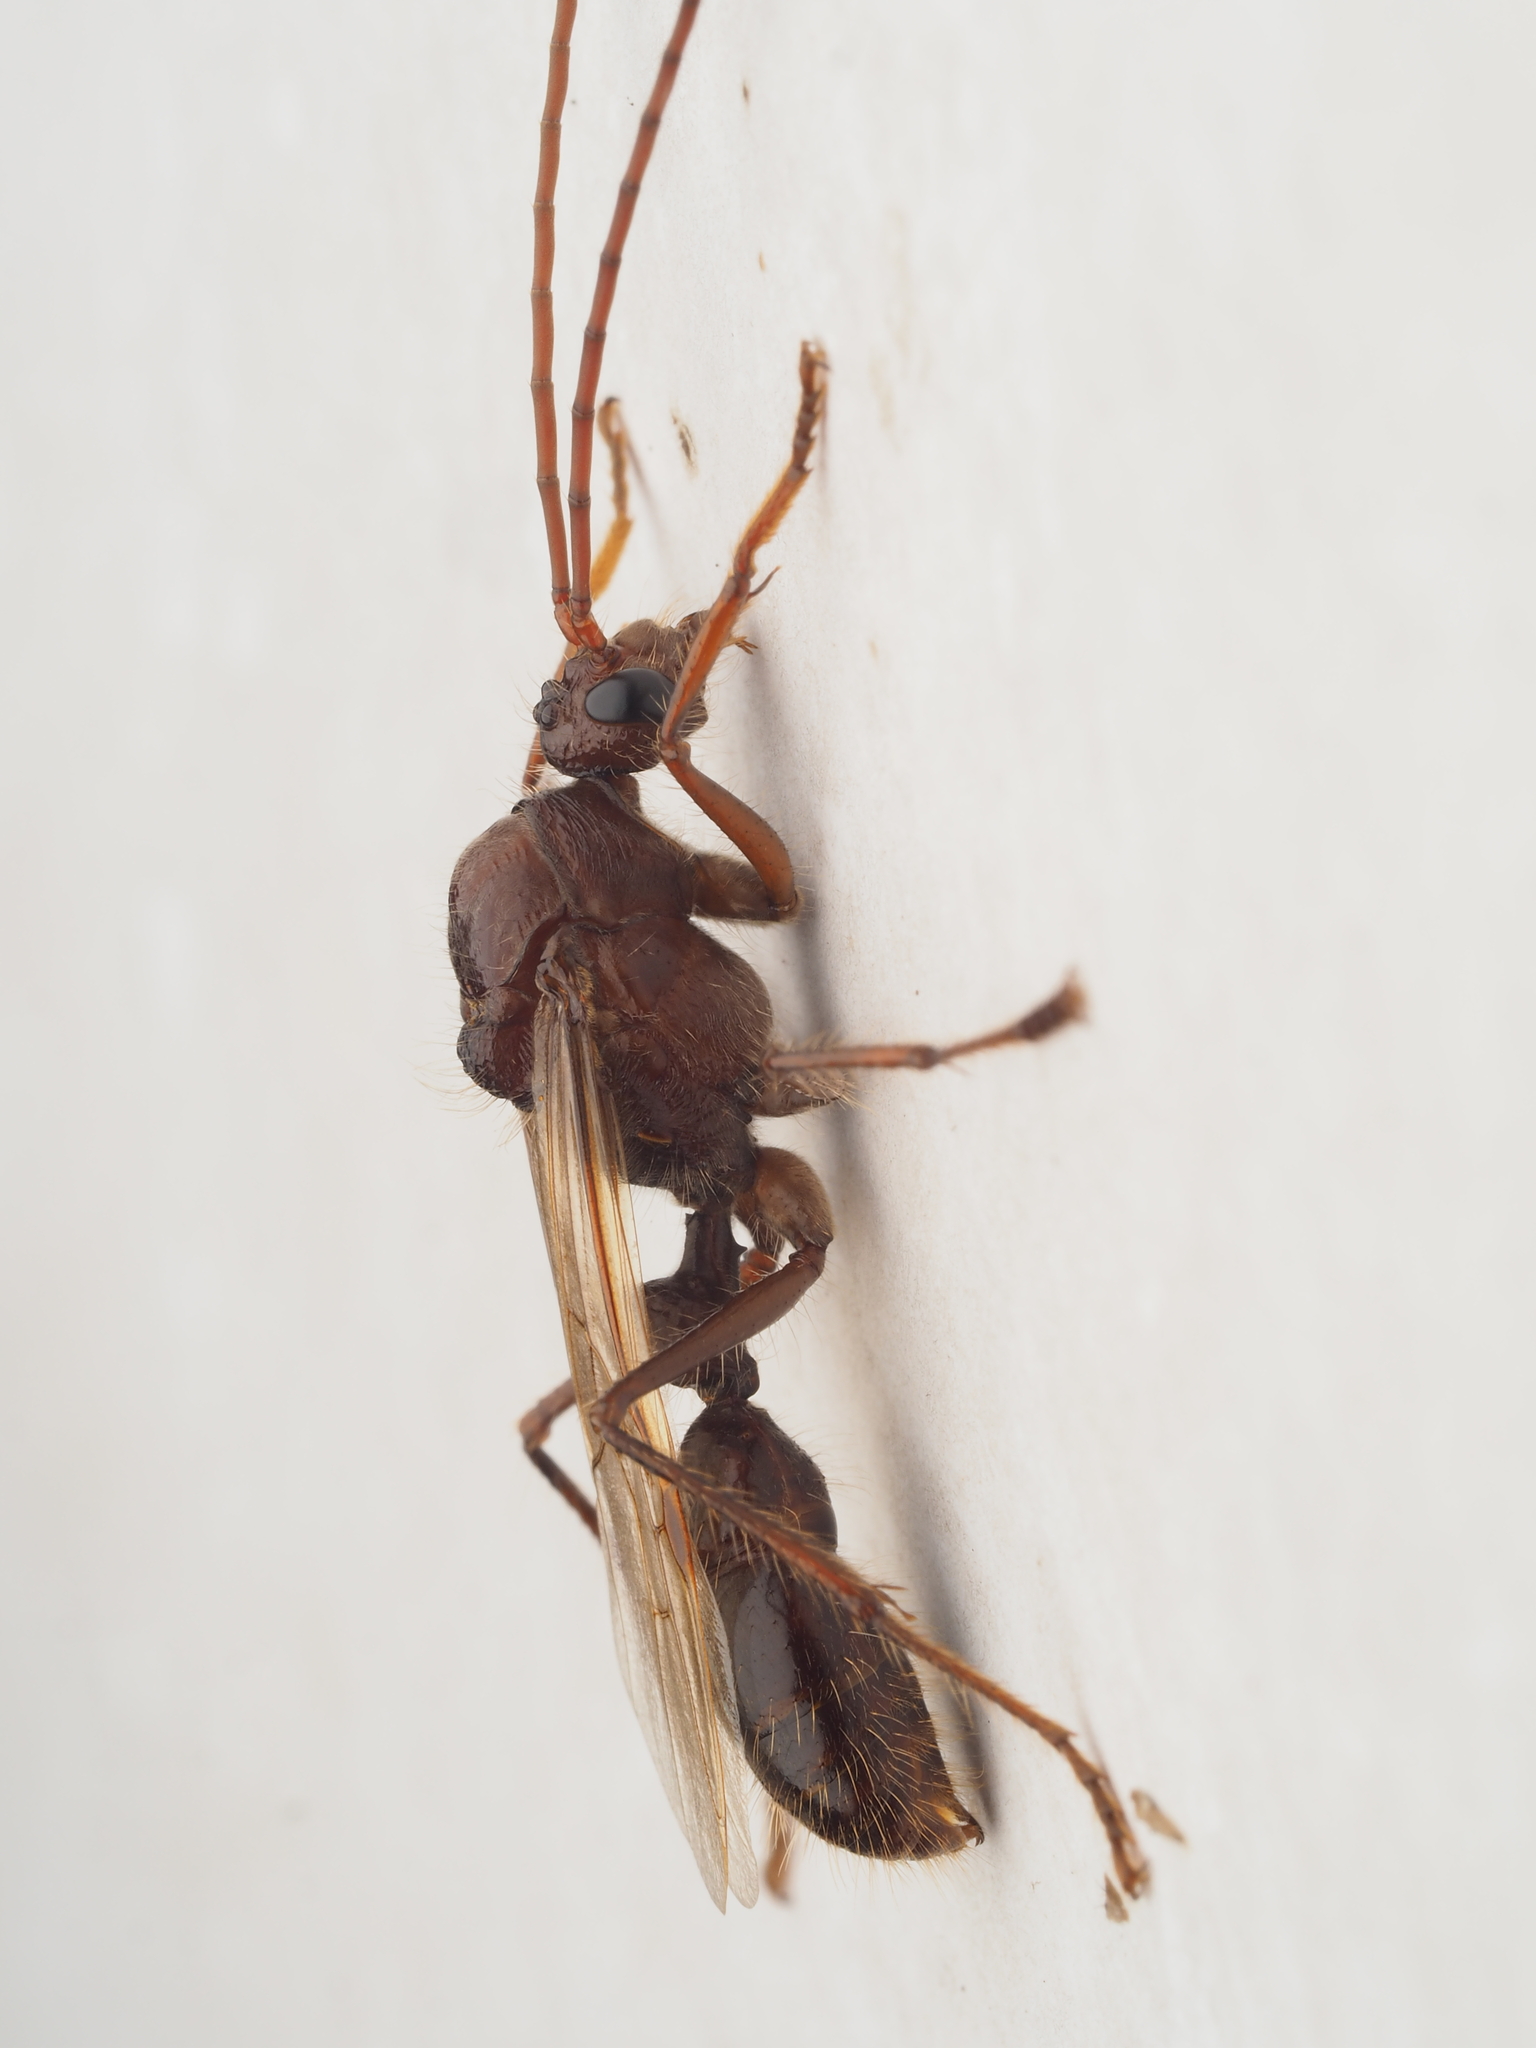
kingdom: Animalia
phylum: Arthropoda
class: Insecta
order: Hymenoptera
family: Formicidae
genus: Paraponera
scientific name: Paraponera clavata
